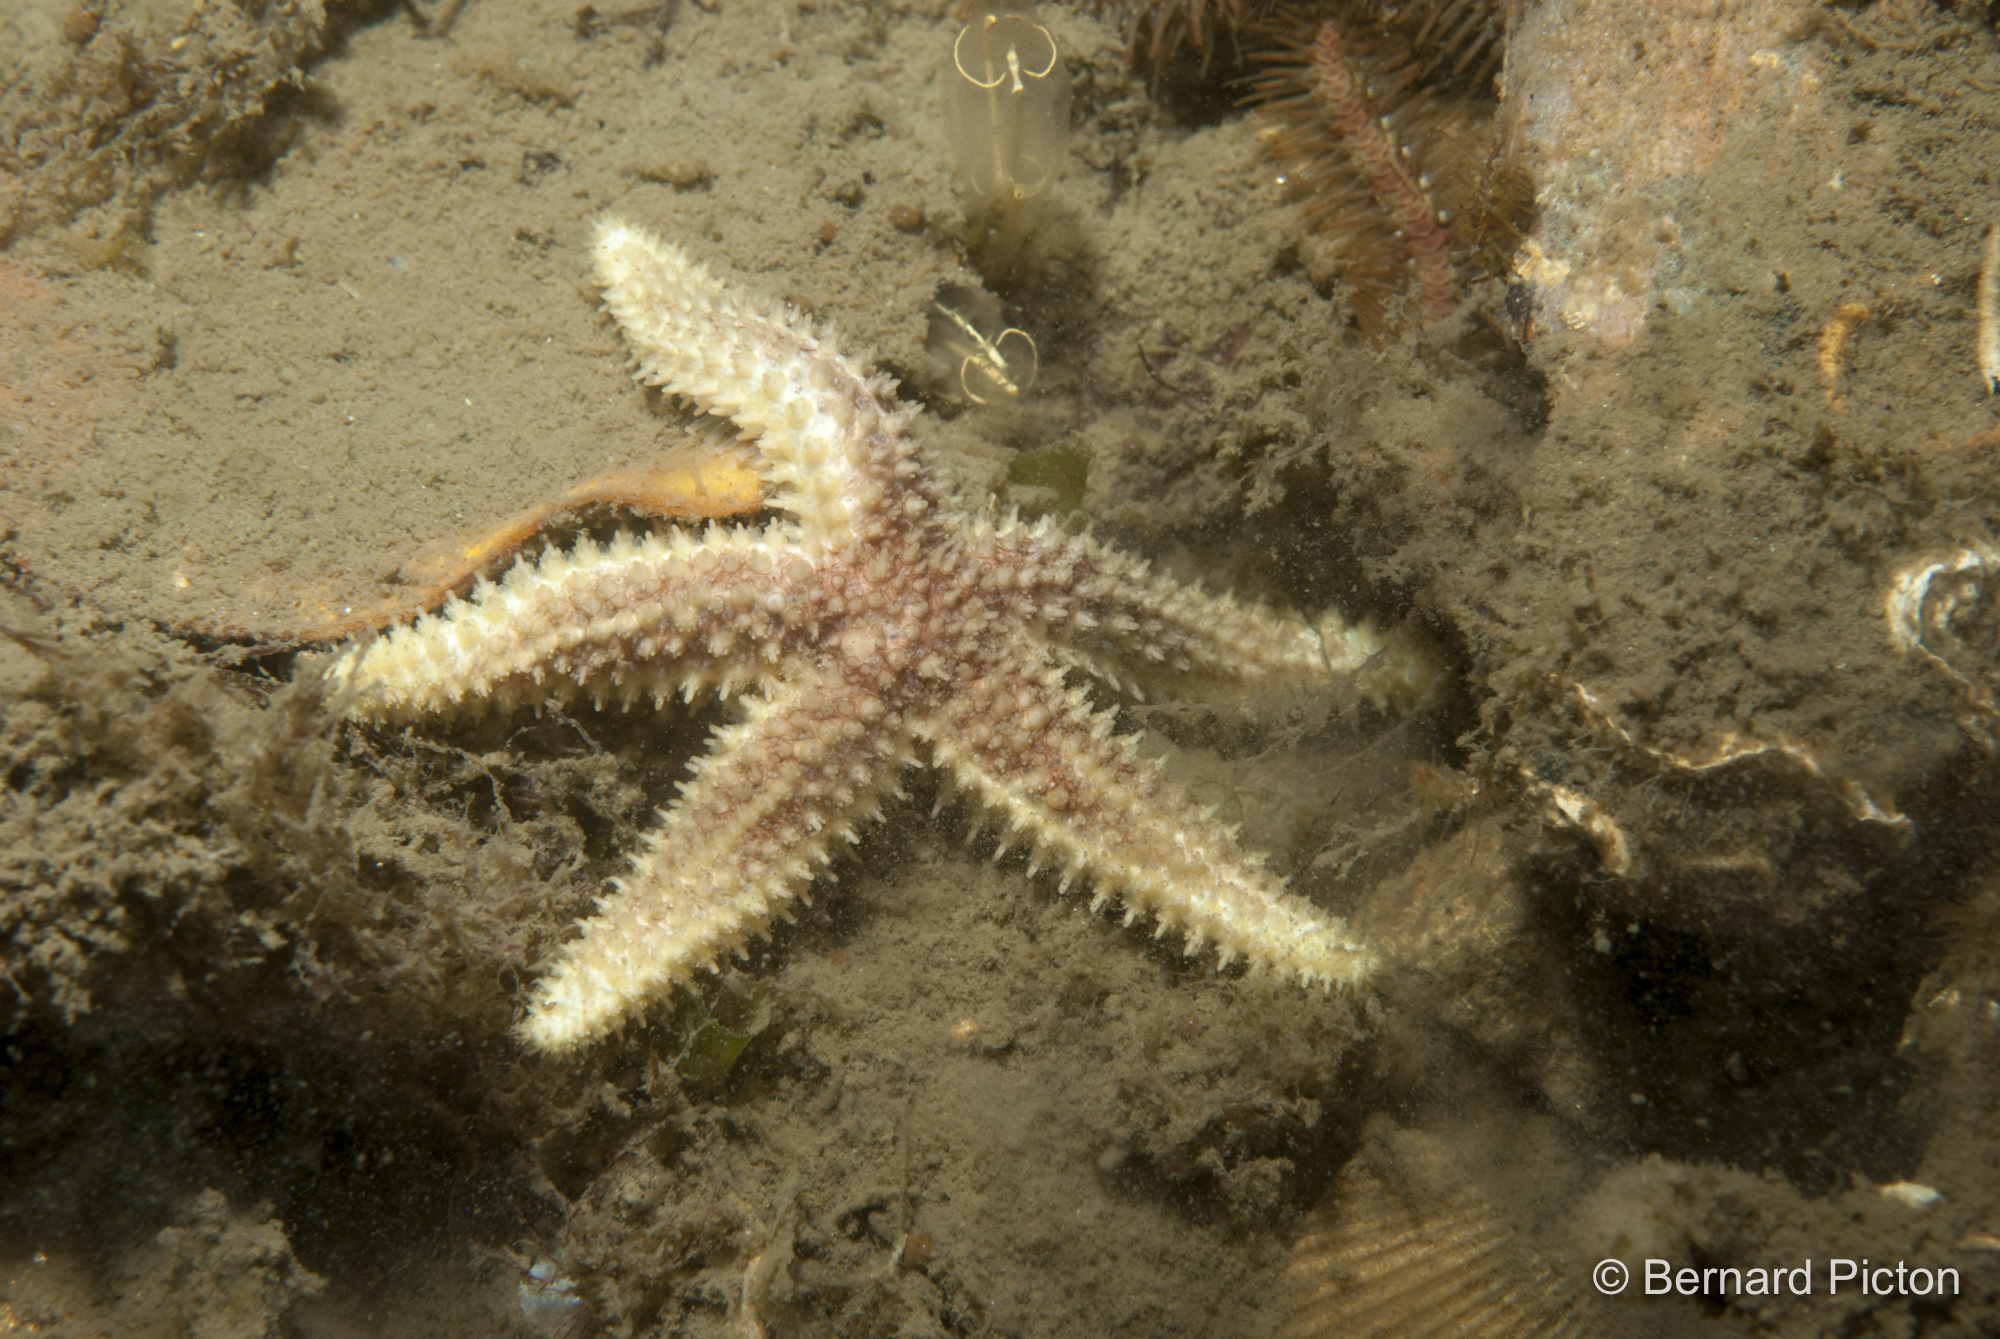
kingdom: Animalia
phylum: Echinodermata
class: Asteroidea
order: Forcipulatida
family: Asteriidae
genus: Leptasterias
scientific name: Leptasterias muelleri
